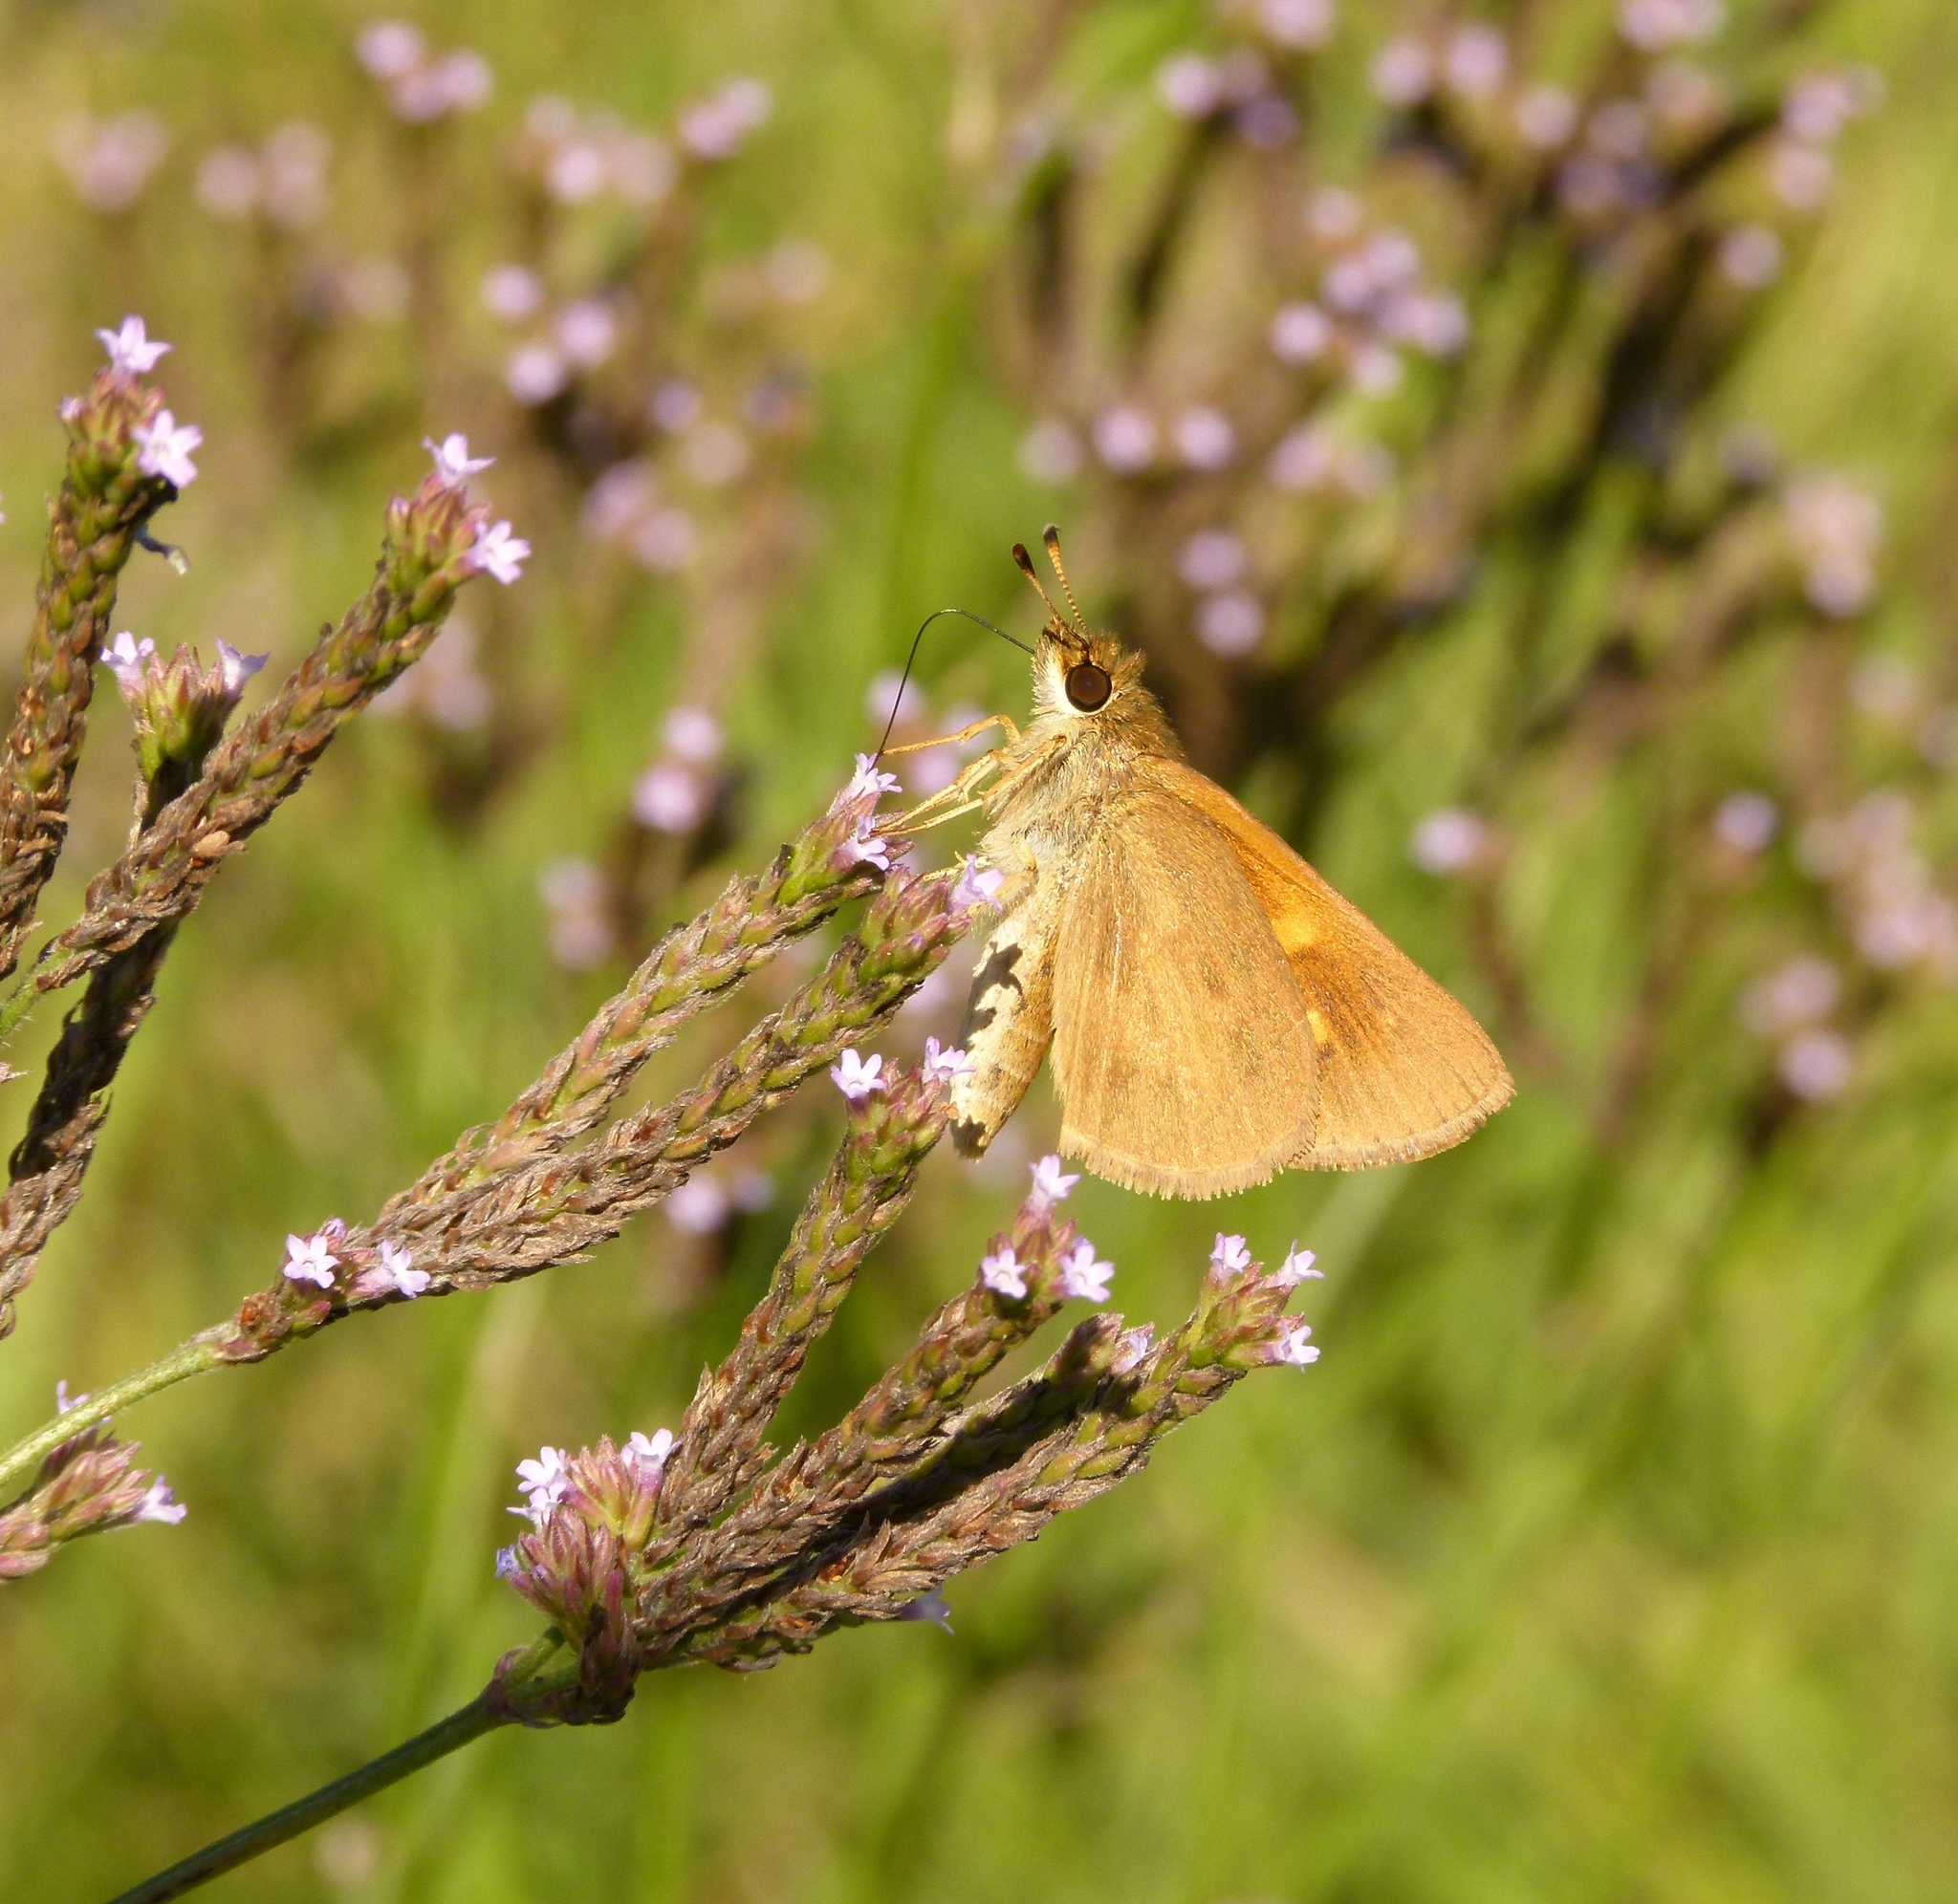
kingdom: Animalia
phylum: Arthropoda
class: Insecta
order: Lepidoptera
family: Hesperiidae
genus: Poanes
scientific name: Poanes viator
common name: Broad-winged skipper
